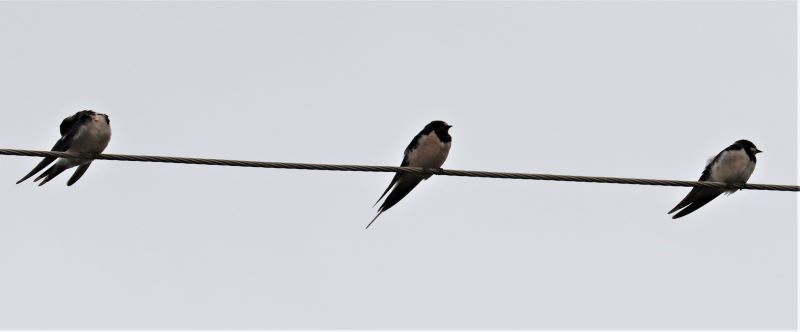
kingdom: Animalia
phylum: Chordata
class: Aves
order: Passeriformes
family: Hirundinidae
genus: Hirundo
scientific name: Hirundo rustica
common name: Barn swallow
